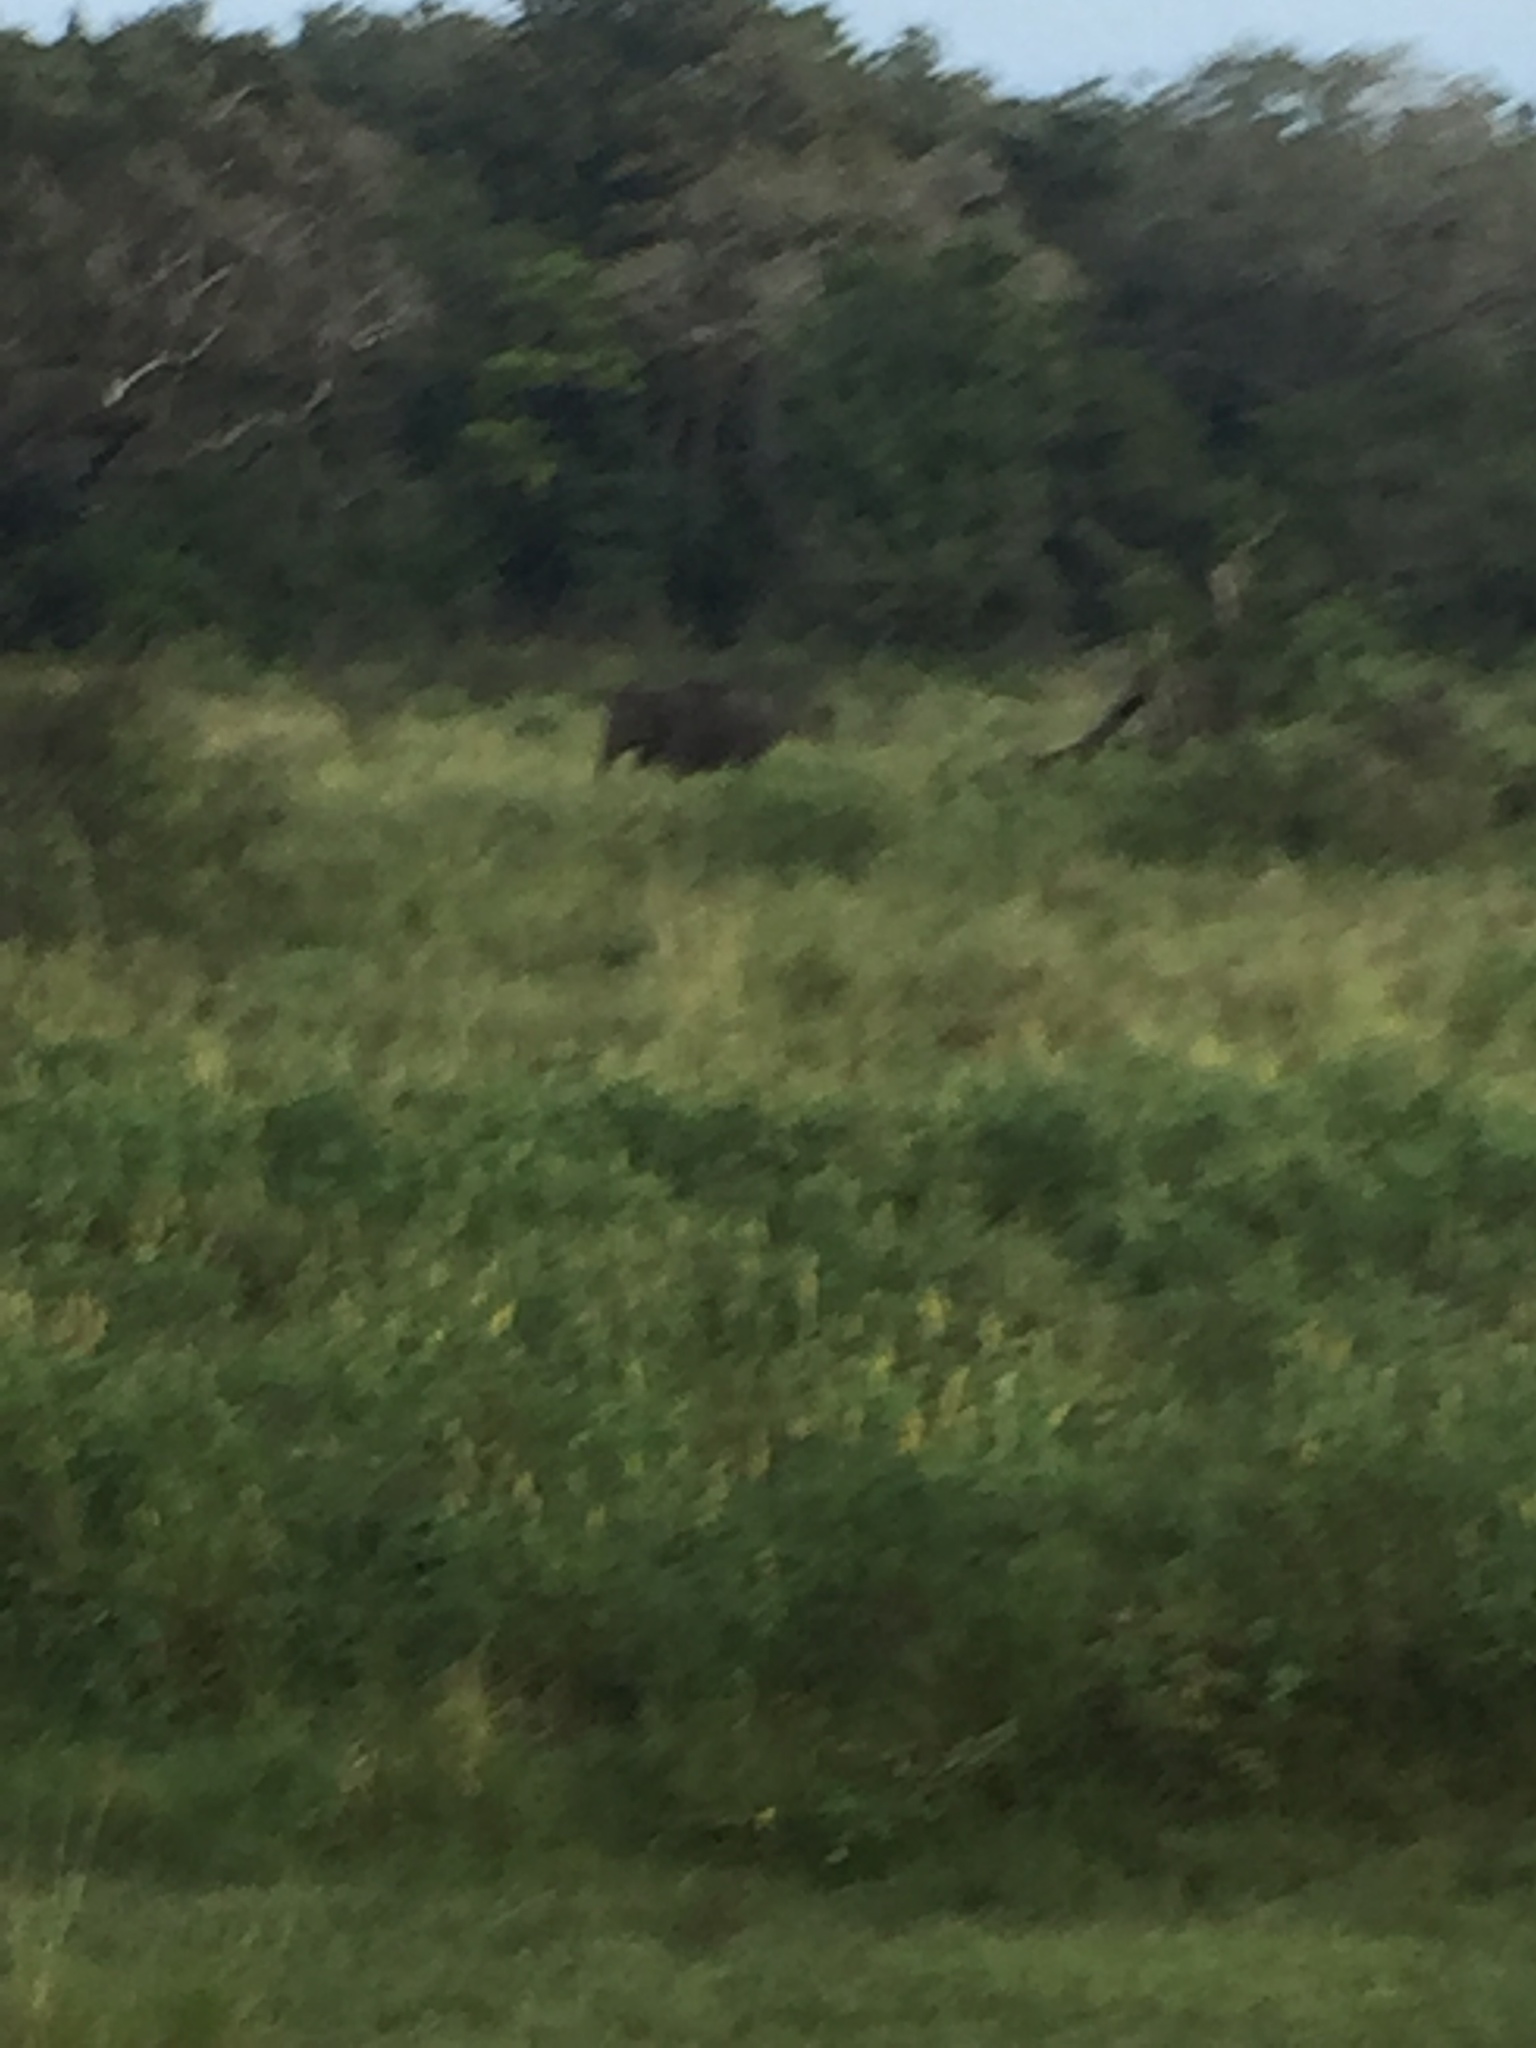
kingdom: Animalia
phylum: Chordata
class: Mammalia
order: Proboscidea
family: Elephantidae
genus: Elephas
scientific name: Elephas maximus
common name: Asian elephant
